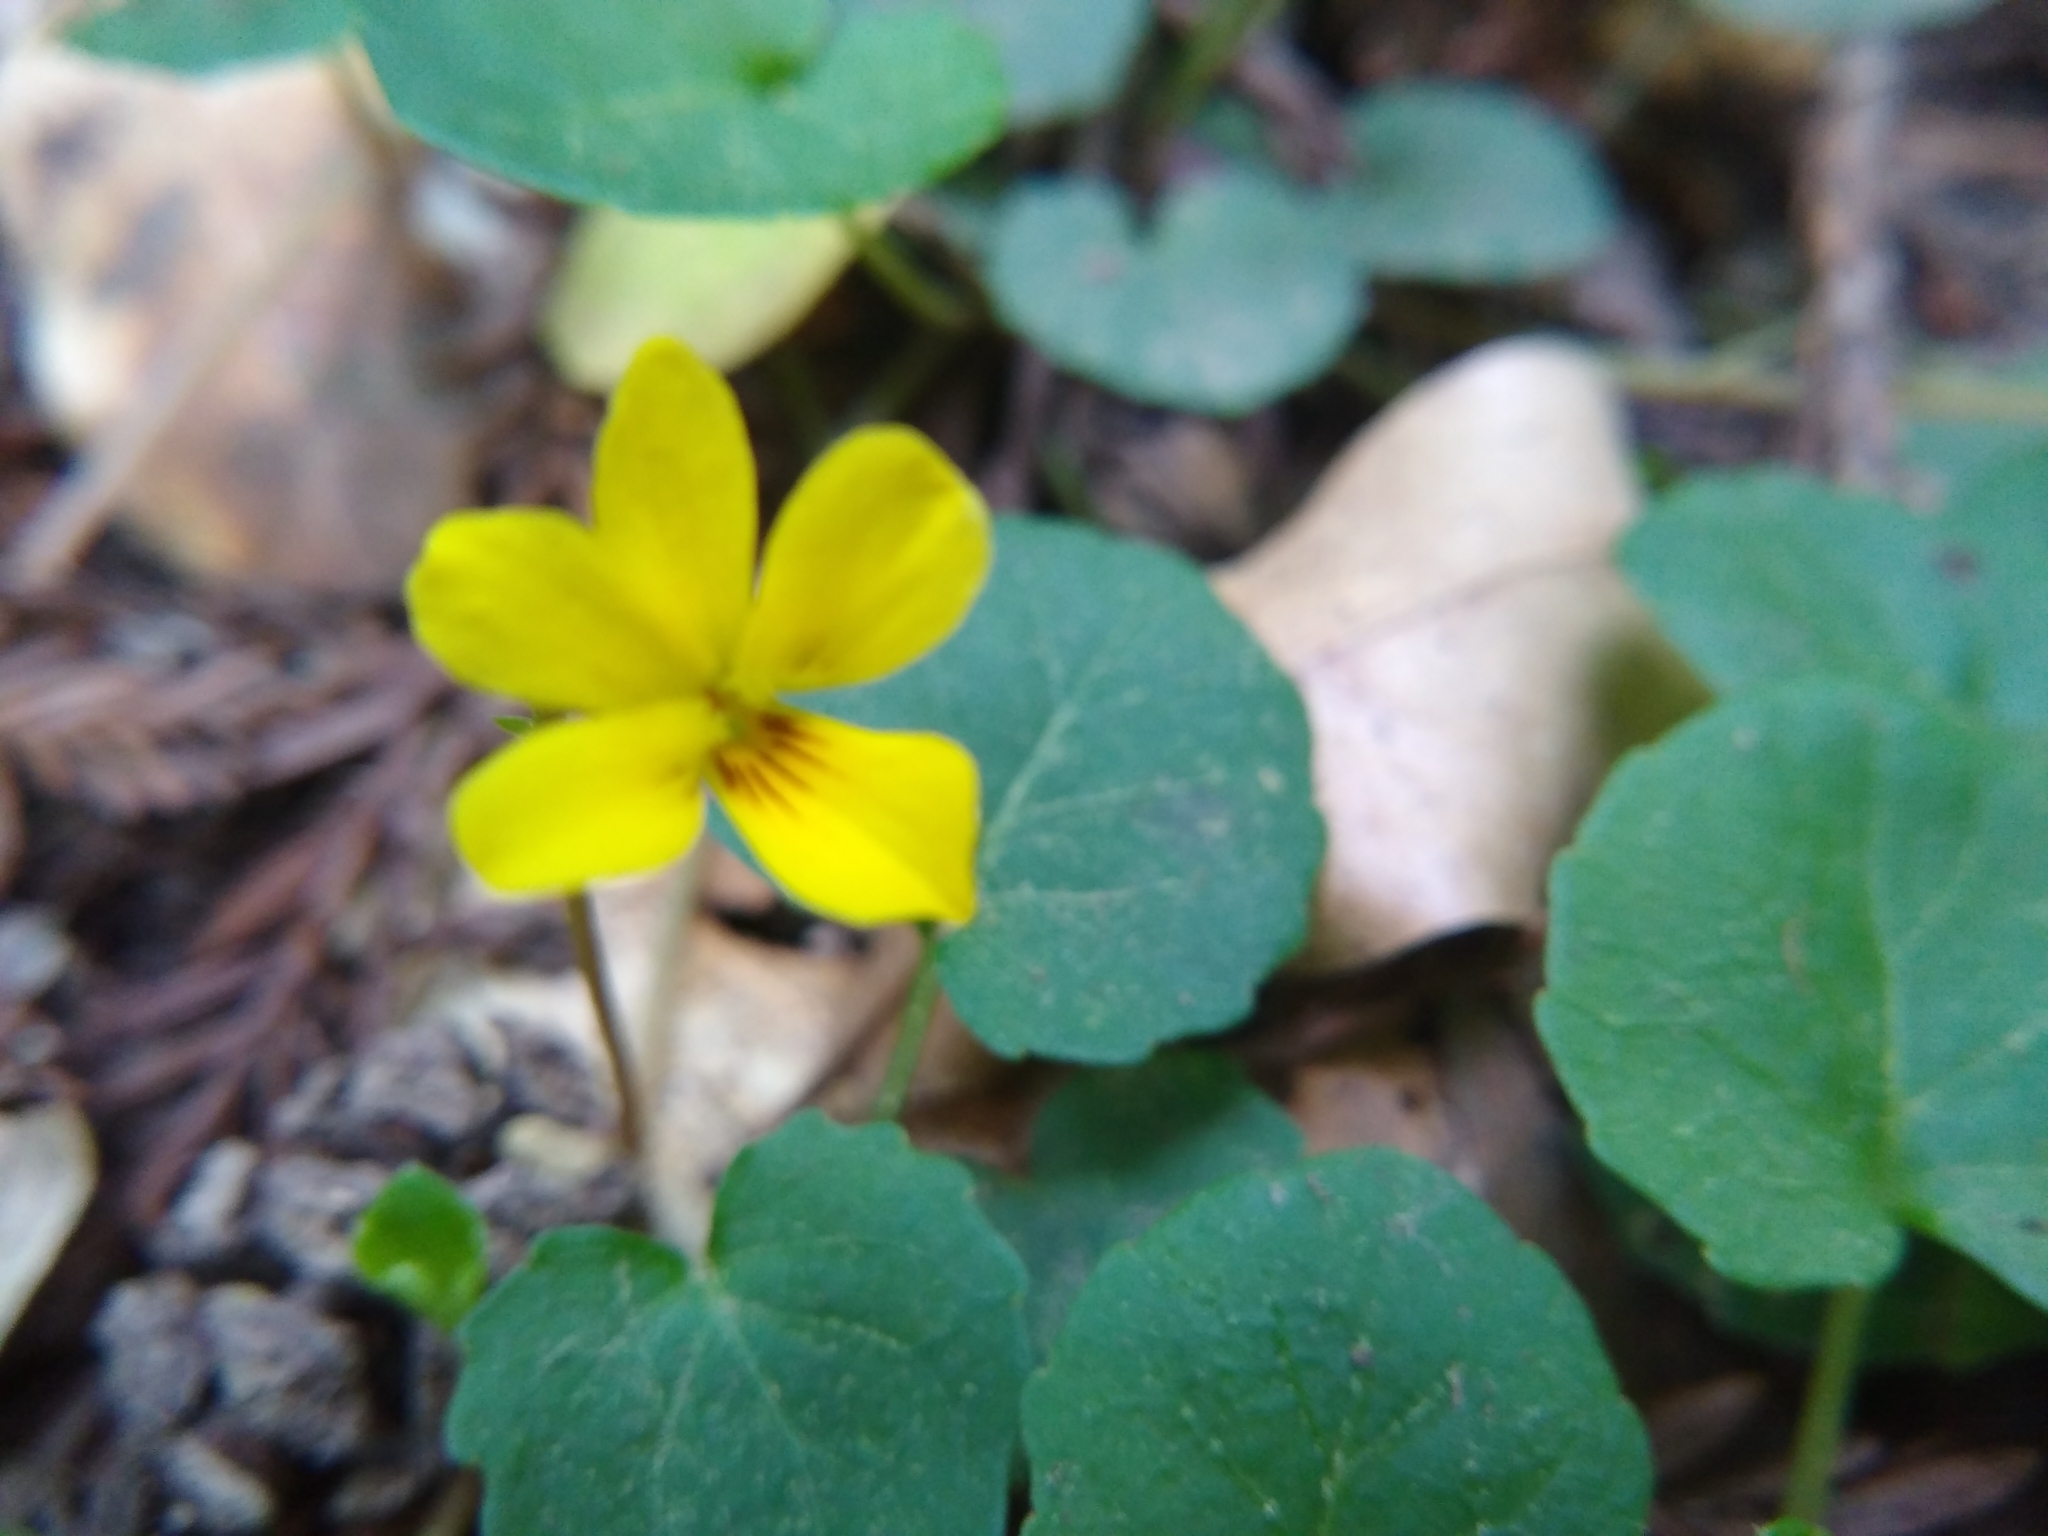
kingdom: Plantae
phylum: Tracheophyta
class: Magnoliopsida
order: Malpighiales
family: Violaceae
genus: Viola
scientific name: Viola sempervirens
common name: Evergreen violet
